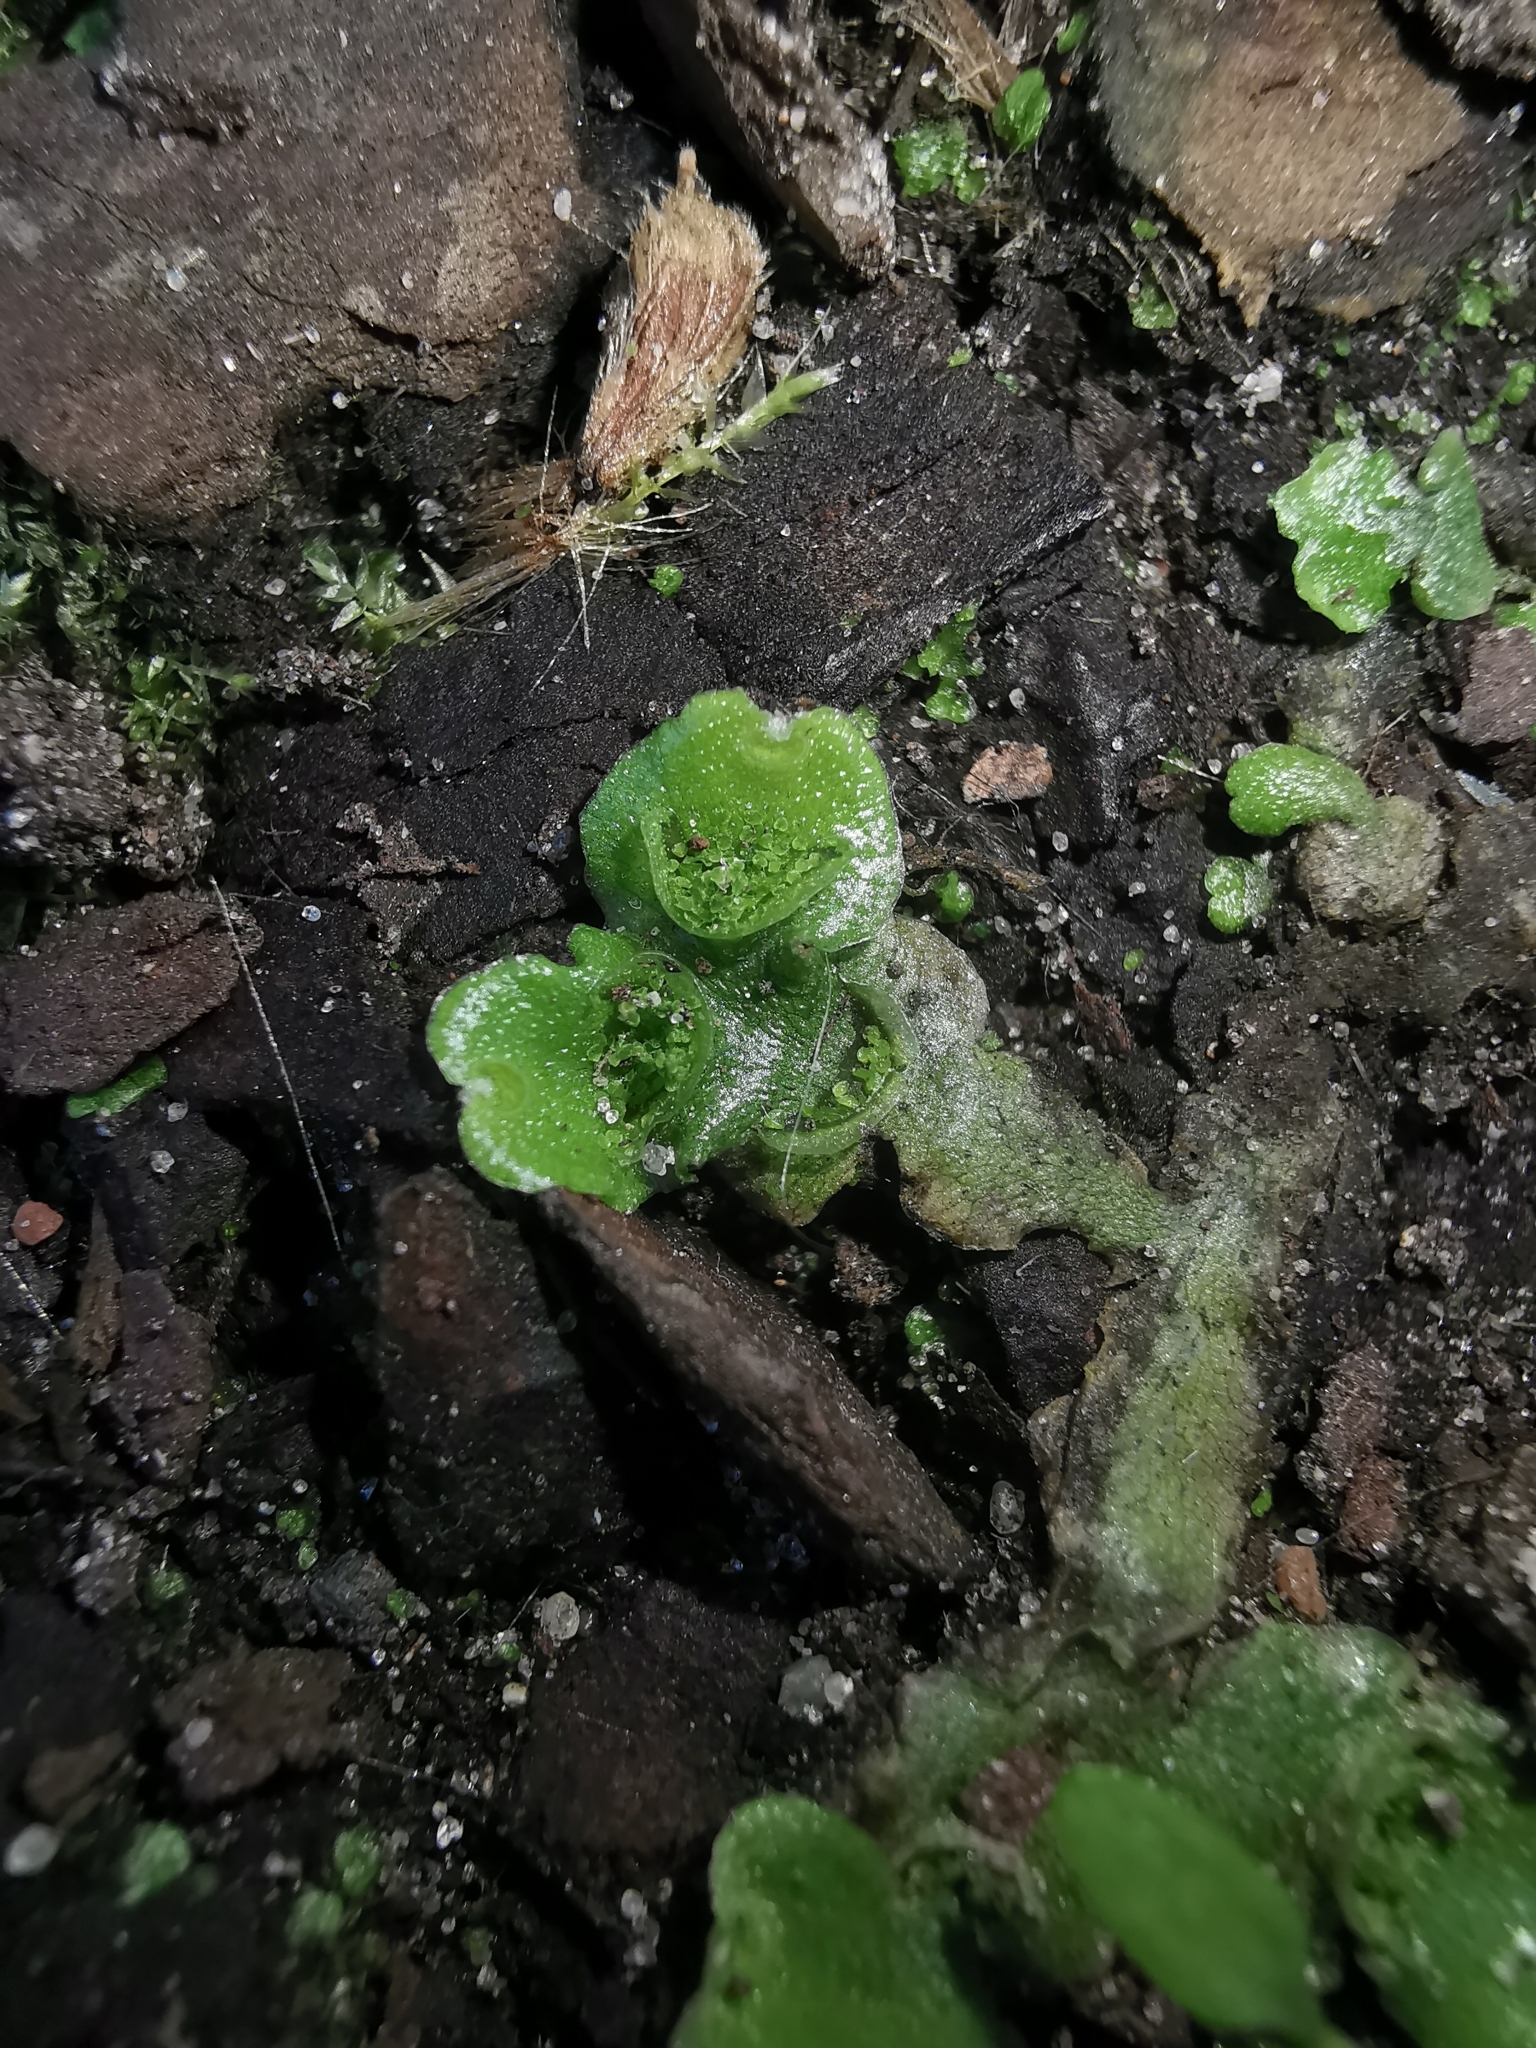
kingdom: Plantae
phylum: Marchantiophyta
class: Marchantiopsida
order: Lunulariales
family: Lunulariaceae
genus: Lunularia
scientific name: Lunularia cruciata
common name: Crescent-cup liverwort
